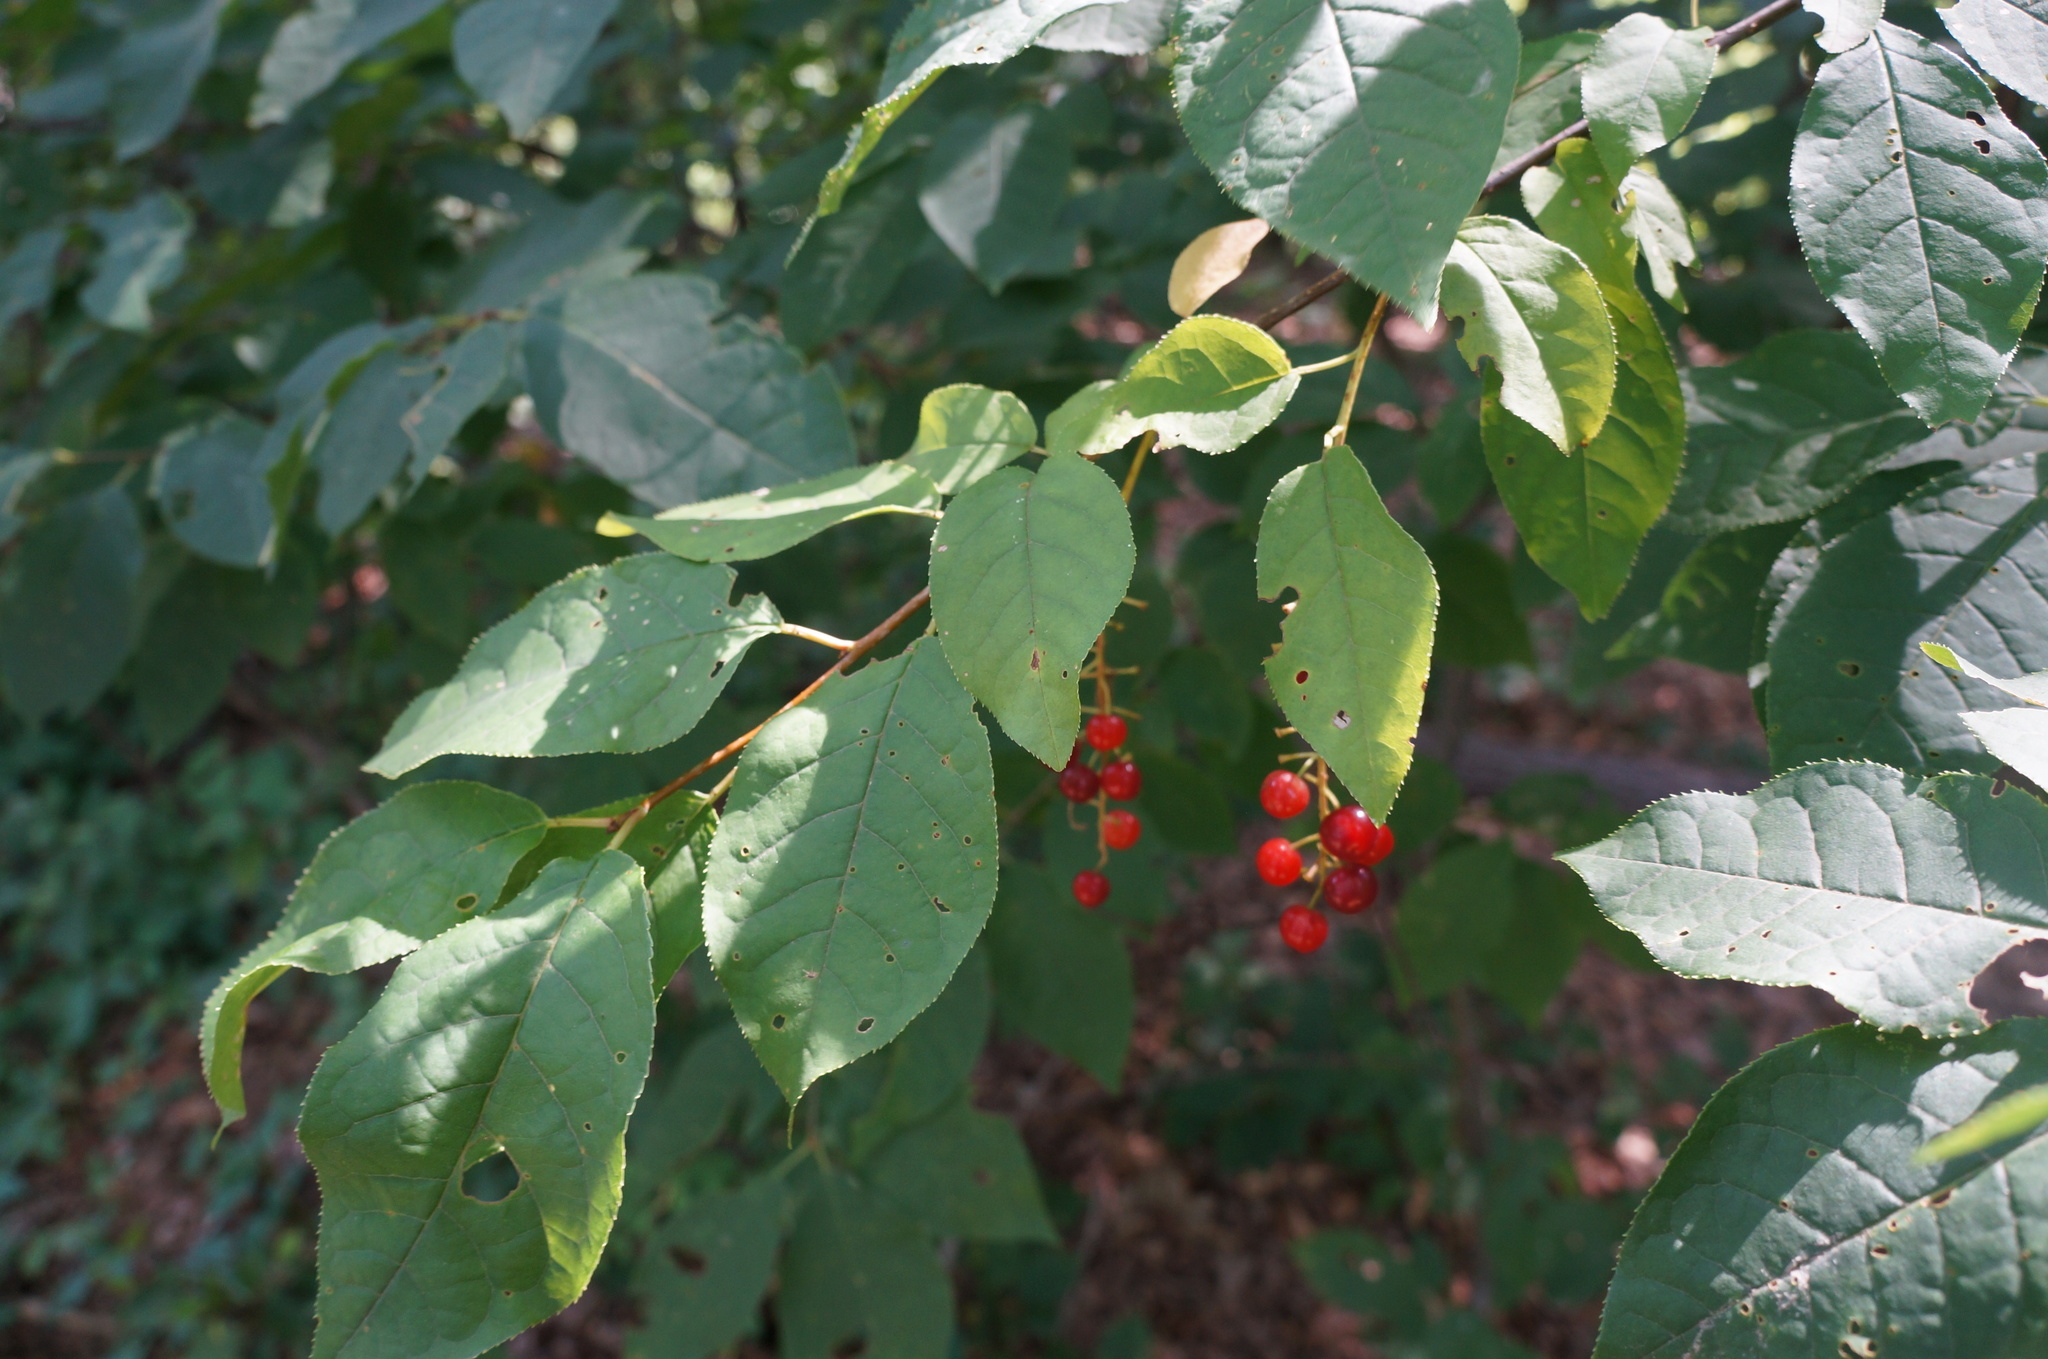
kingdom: Plantae
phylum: Tracheophyta
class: Magnoliopsida
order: Rosales
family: Rosaceae
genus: Prunus
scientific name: Prunus virginiana
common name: Chokecherry
